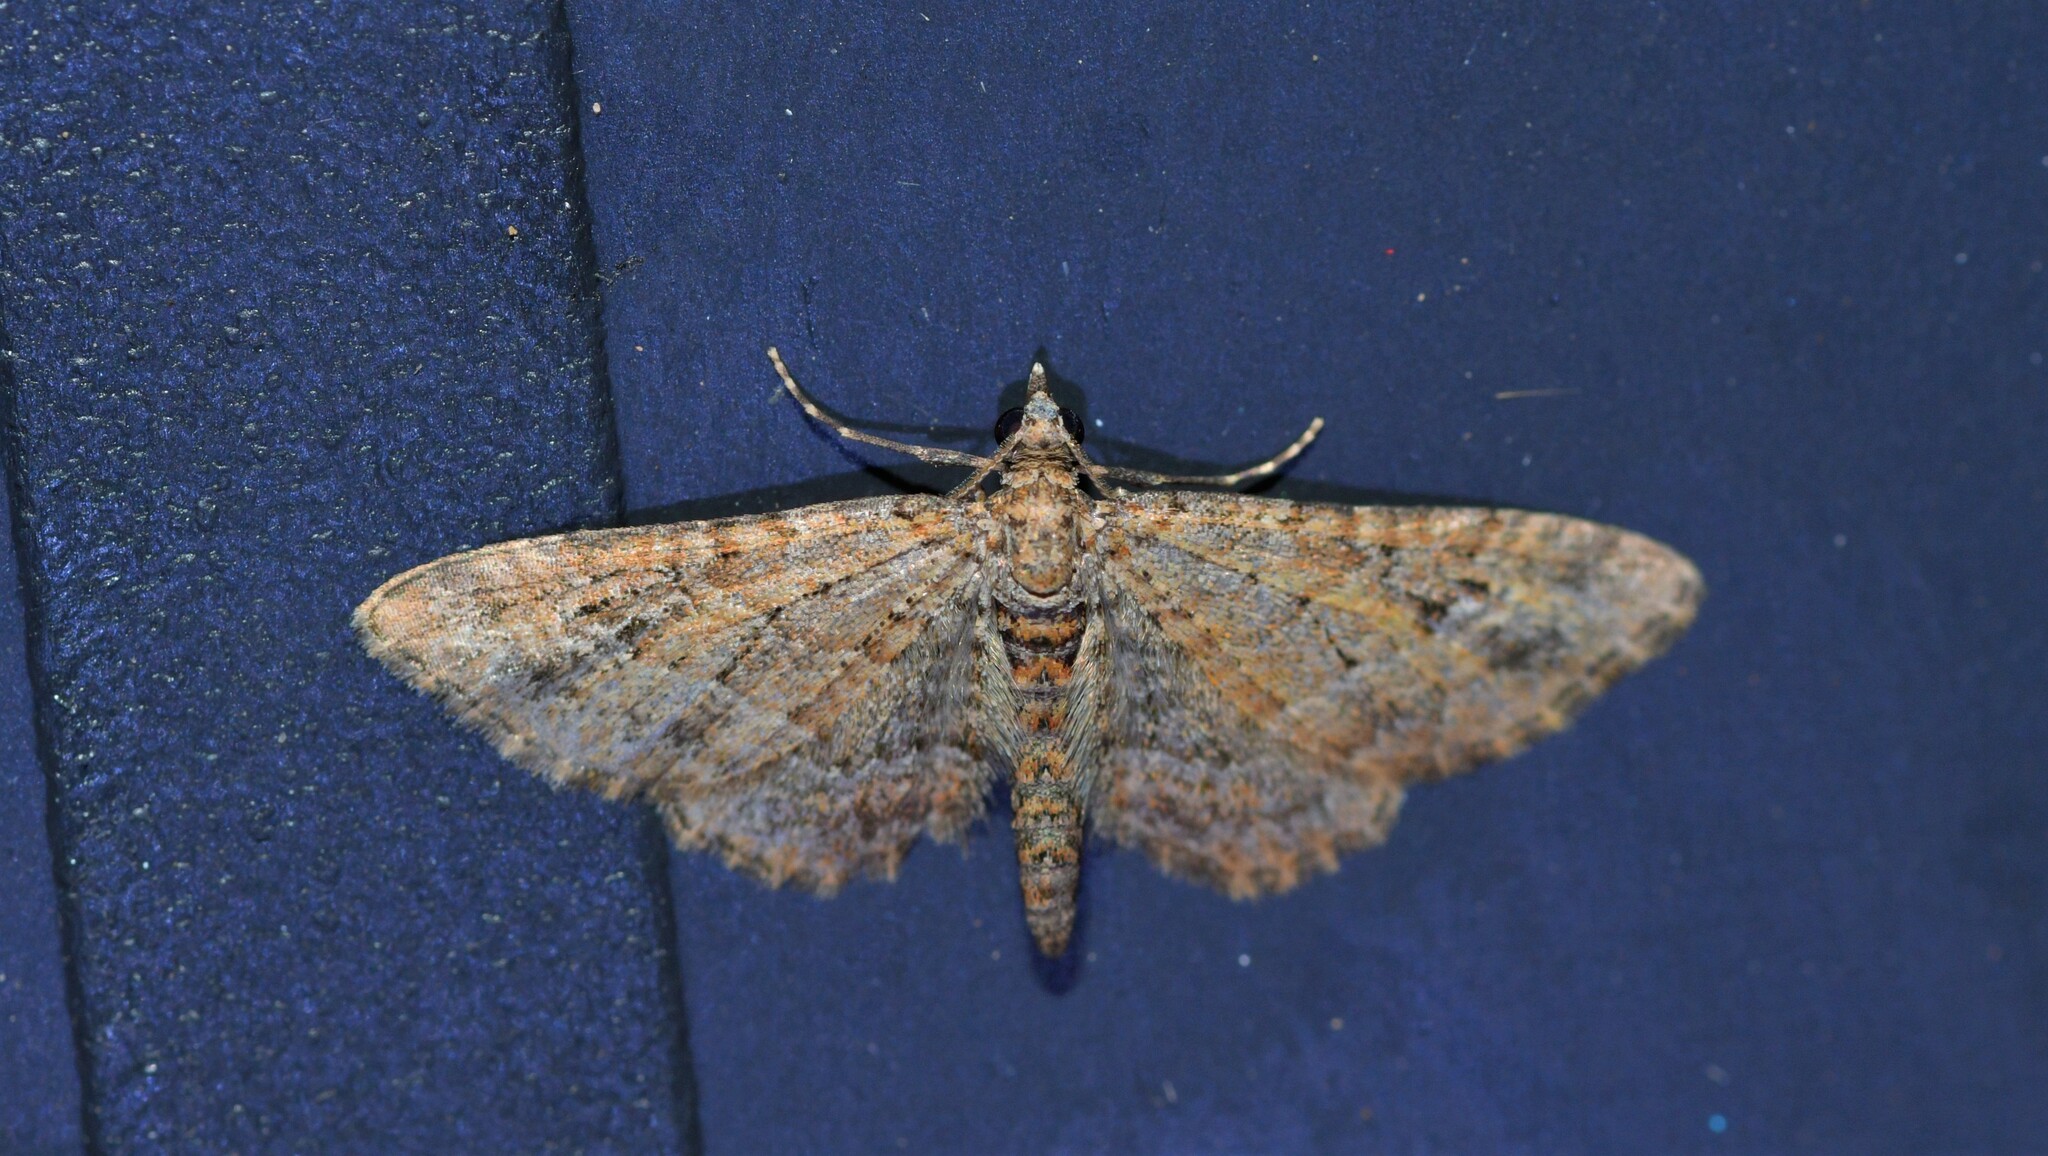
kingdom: Animalia
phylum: Arthropoda
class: Insecta
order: Lepidoptera
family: Geometridae
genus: Gymnoscelis
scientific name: Gymnoscelis rufifasciata
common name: Double-striped pug
